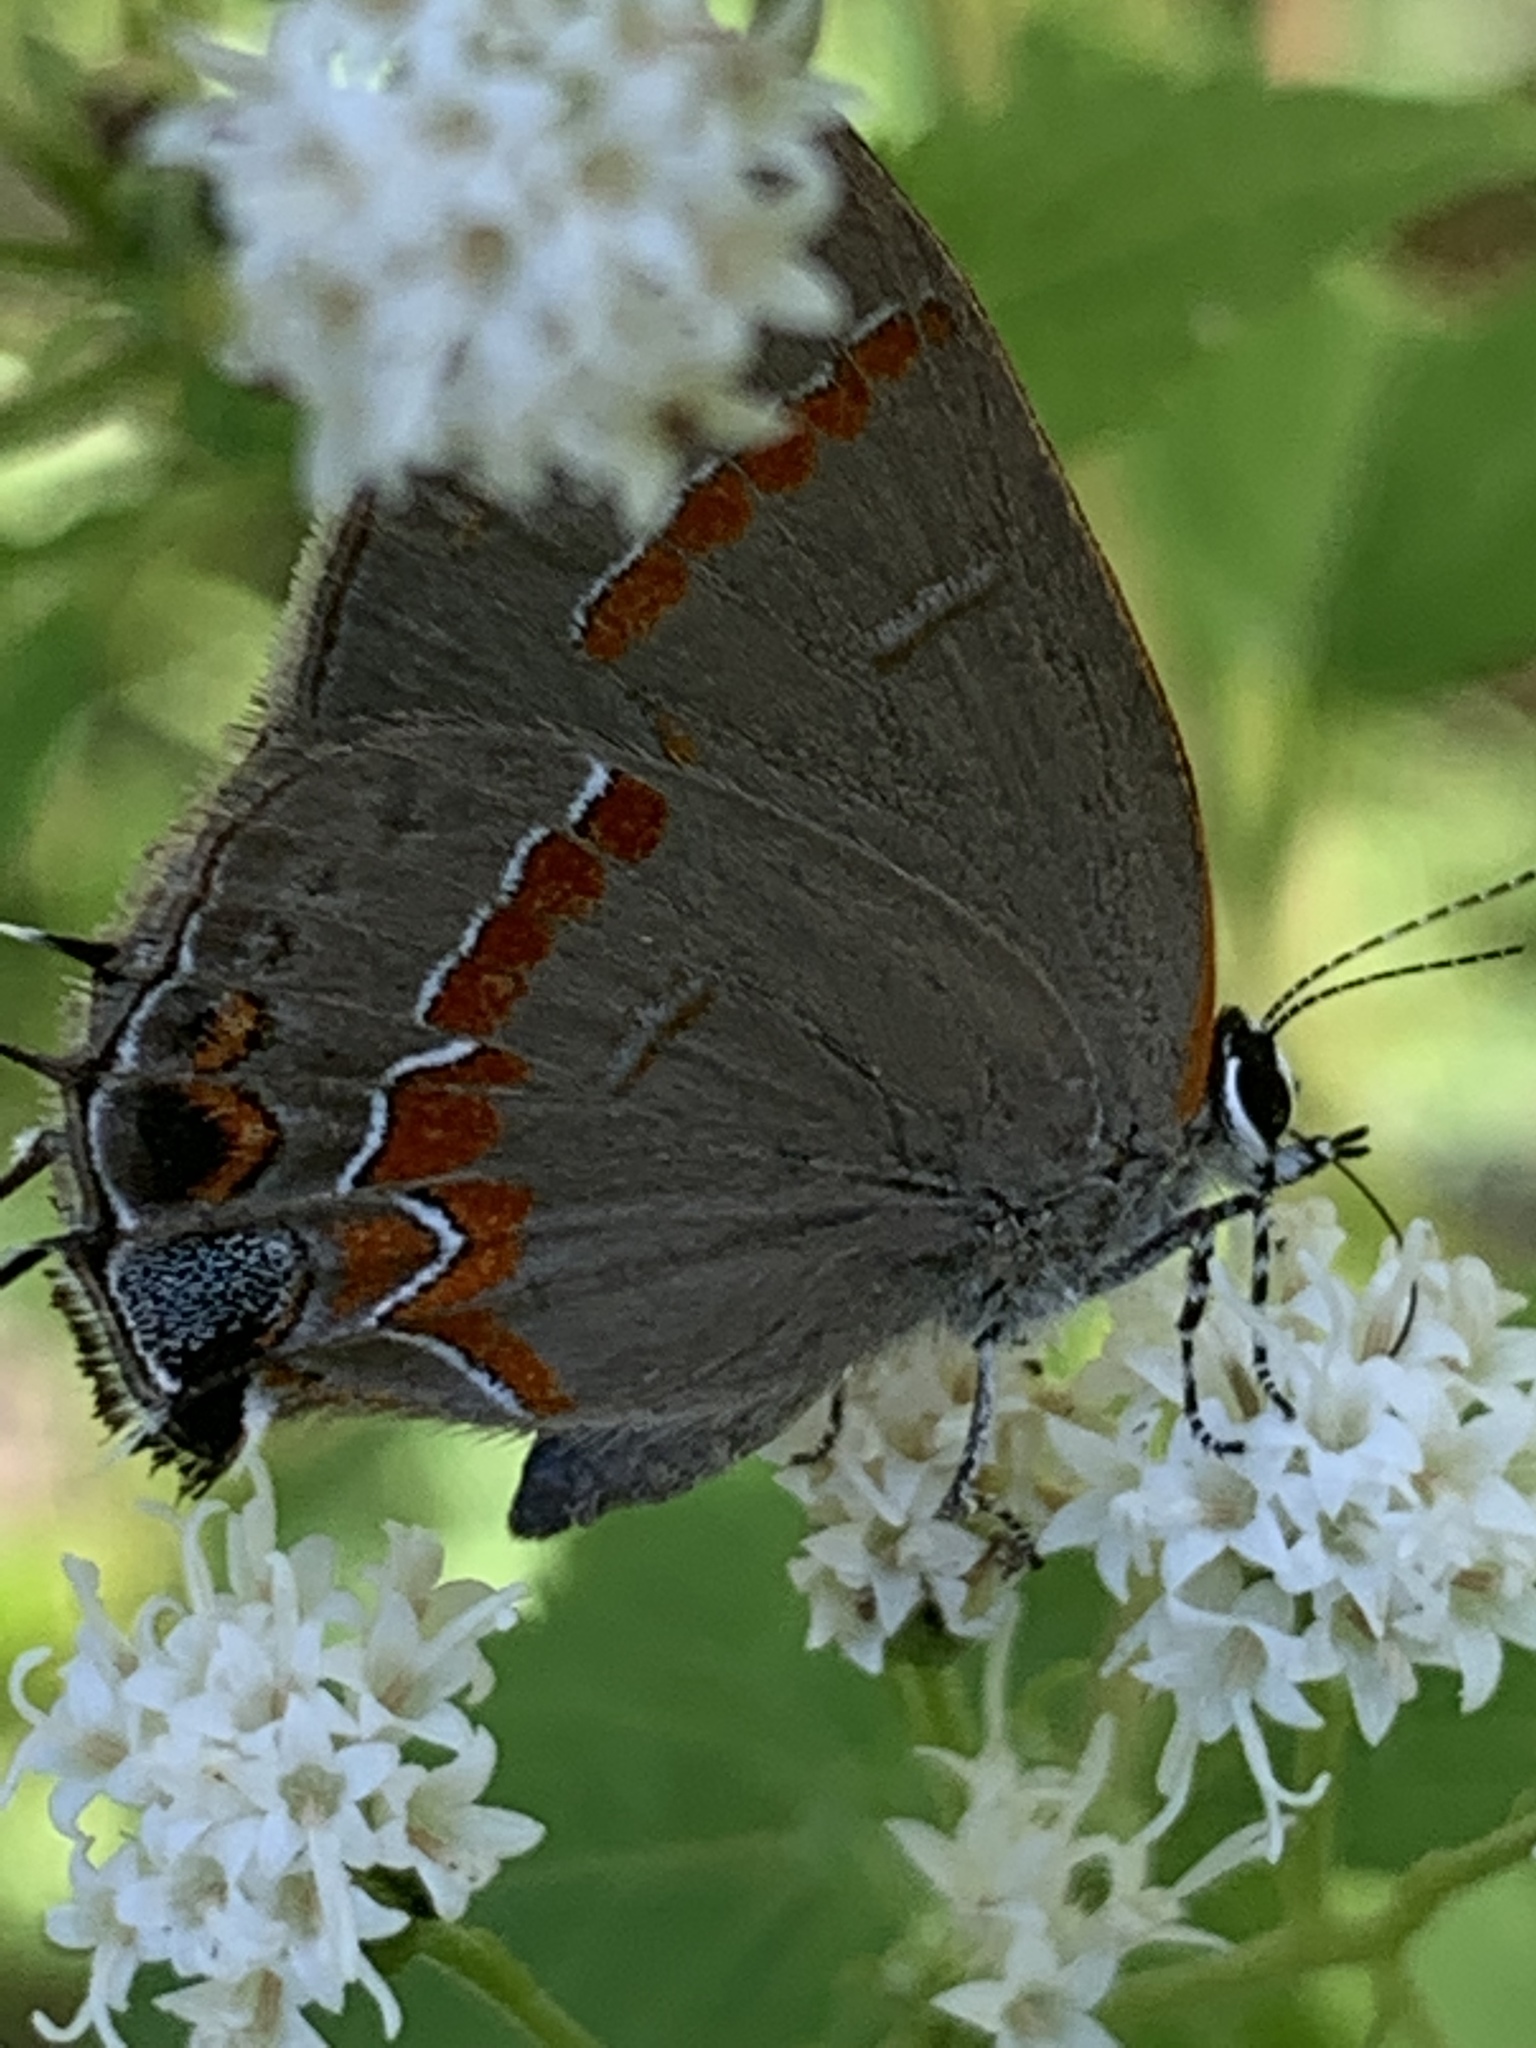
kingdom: Animalia
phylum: Arthropoda
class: Insecta
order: Lepidoptera
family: Lycaenidae
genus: Calycopis
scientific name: Calycopis cecrops
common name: Red-banded hairstreak
